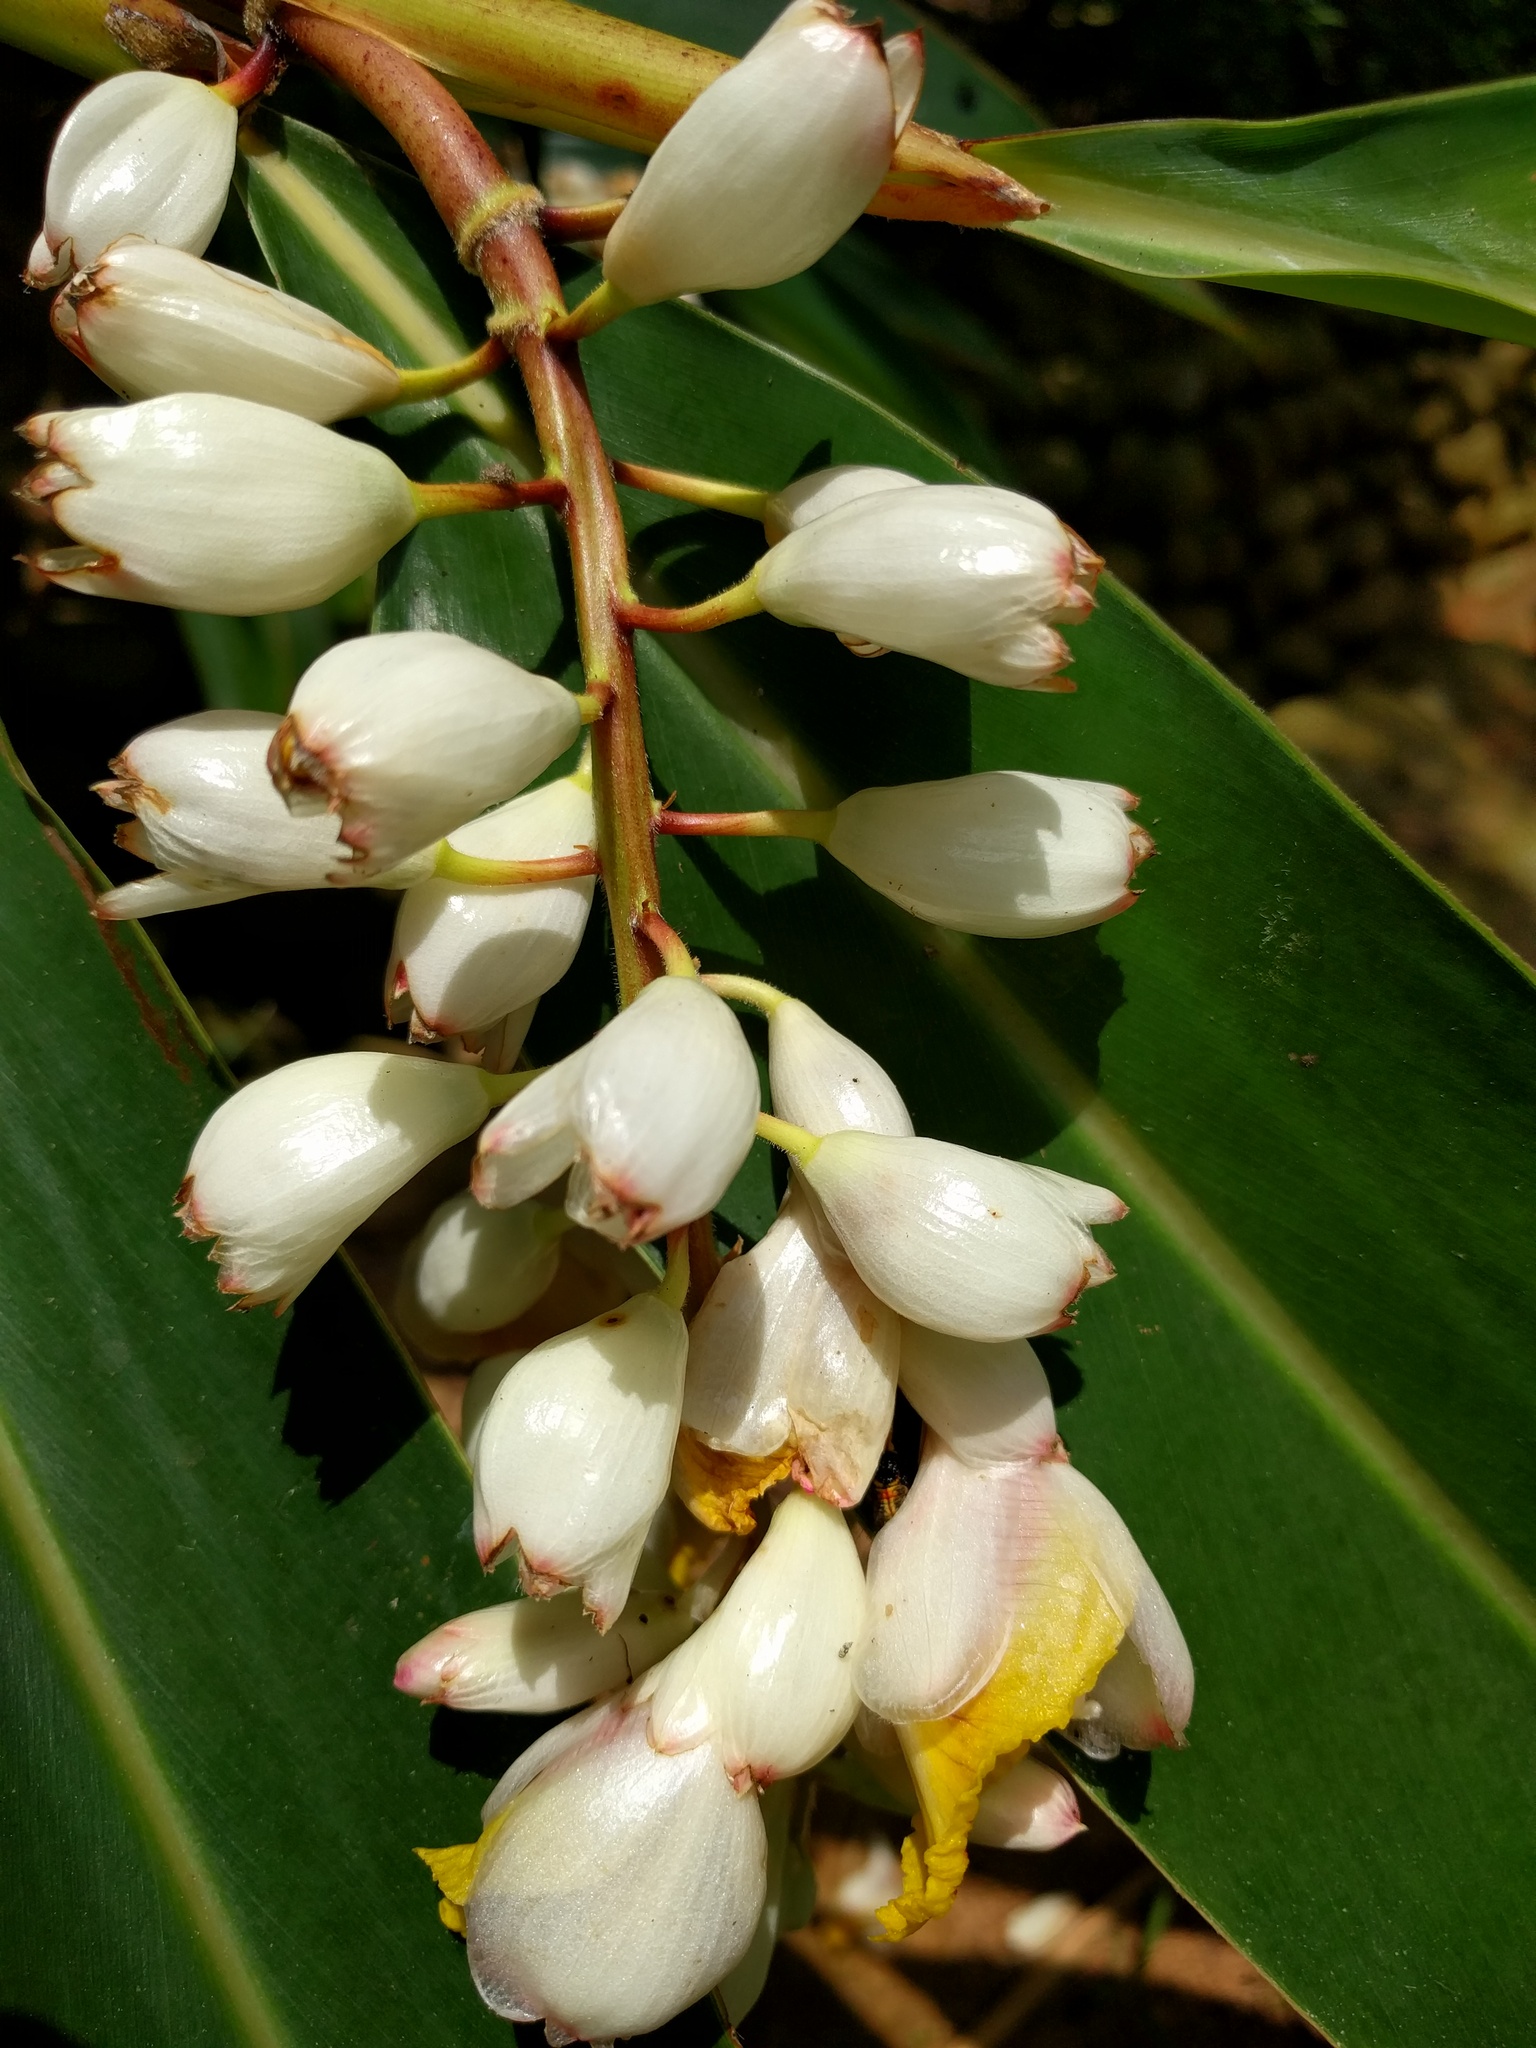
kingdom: Plantae
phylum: Tracheophyta
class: Liliopsida
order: Zingiberales
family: Zingiberaceae
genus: Alpinia
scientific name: Alpinia zerumbet
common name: Shellplant
